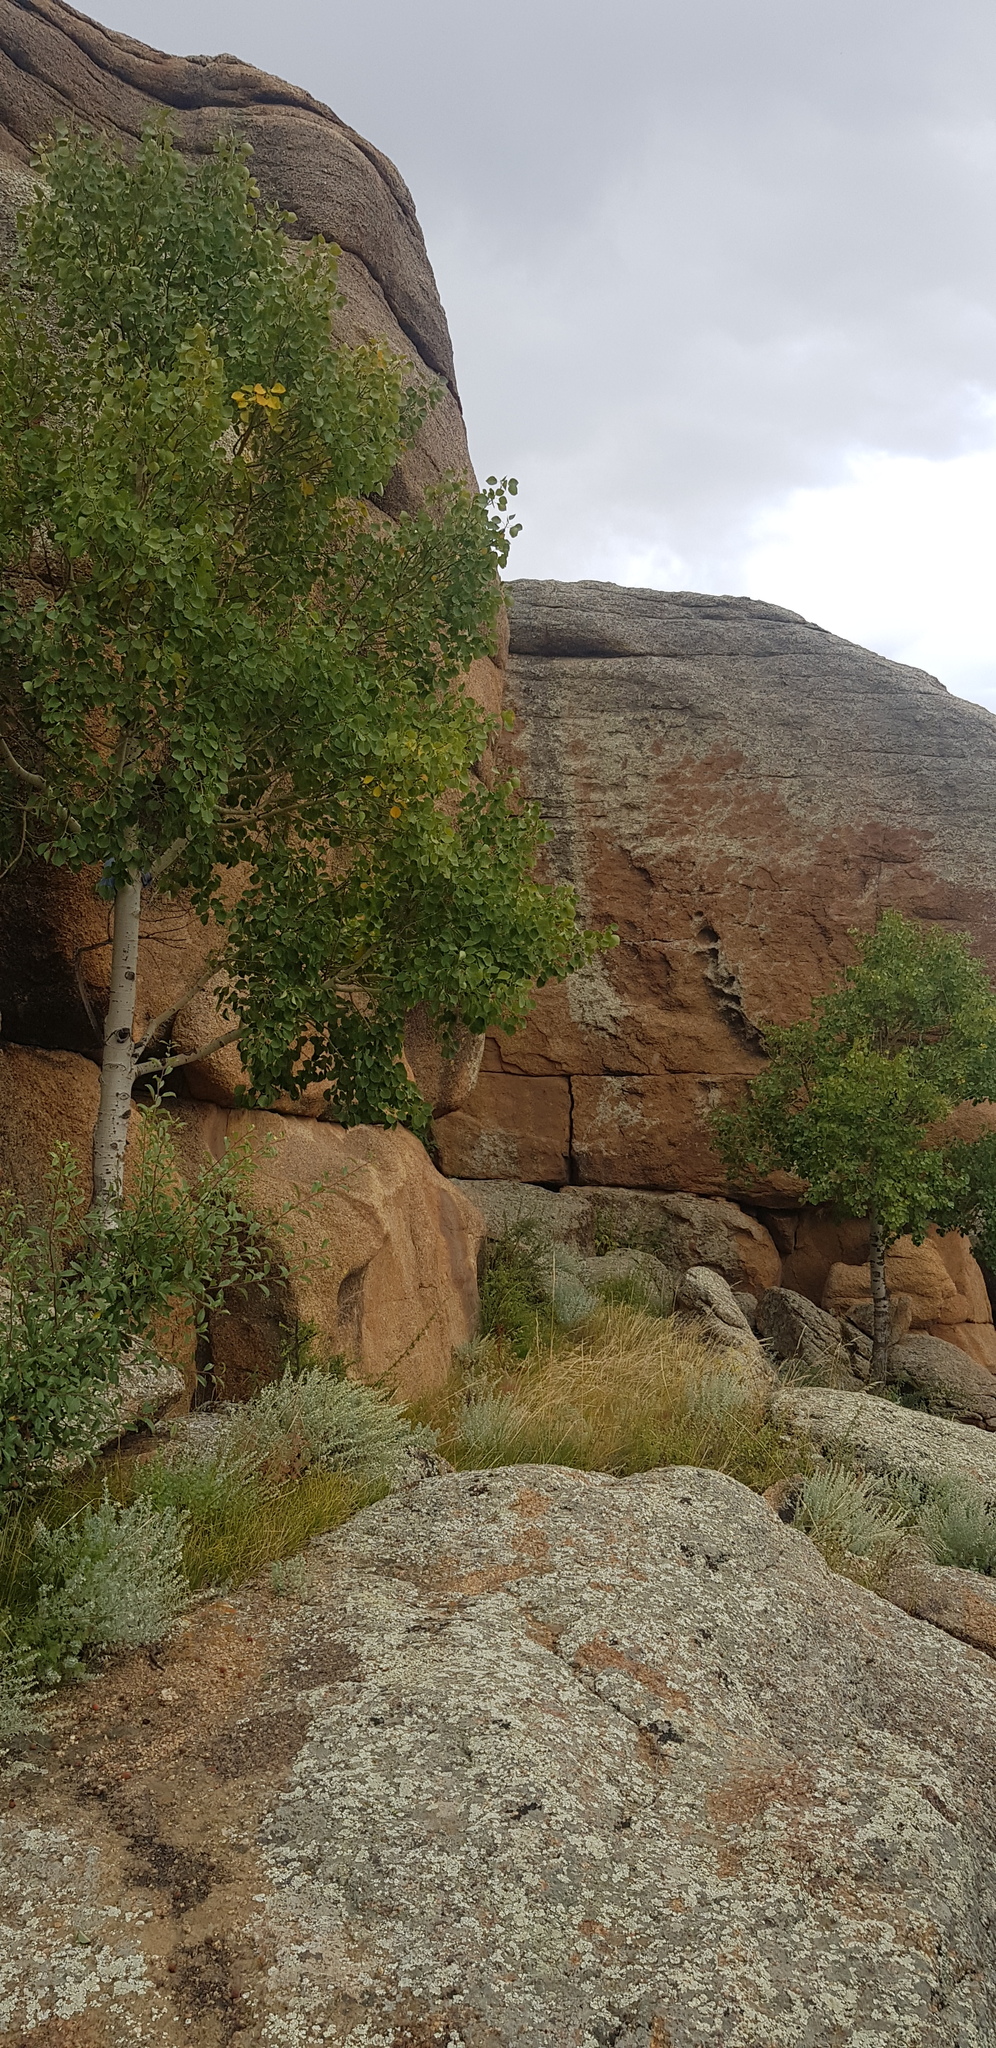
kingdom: Plantae
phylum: Tracheophyta
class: Magnoliopsida
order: Malpighiales
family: Salicaceae
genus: Populus
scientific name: Populus tremula
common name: European aspen
